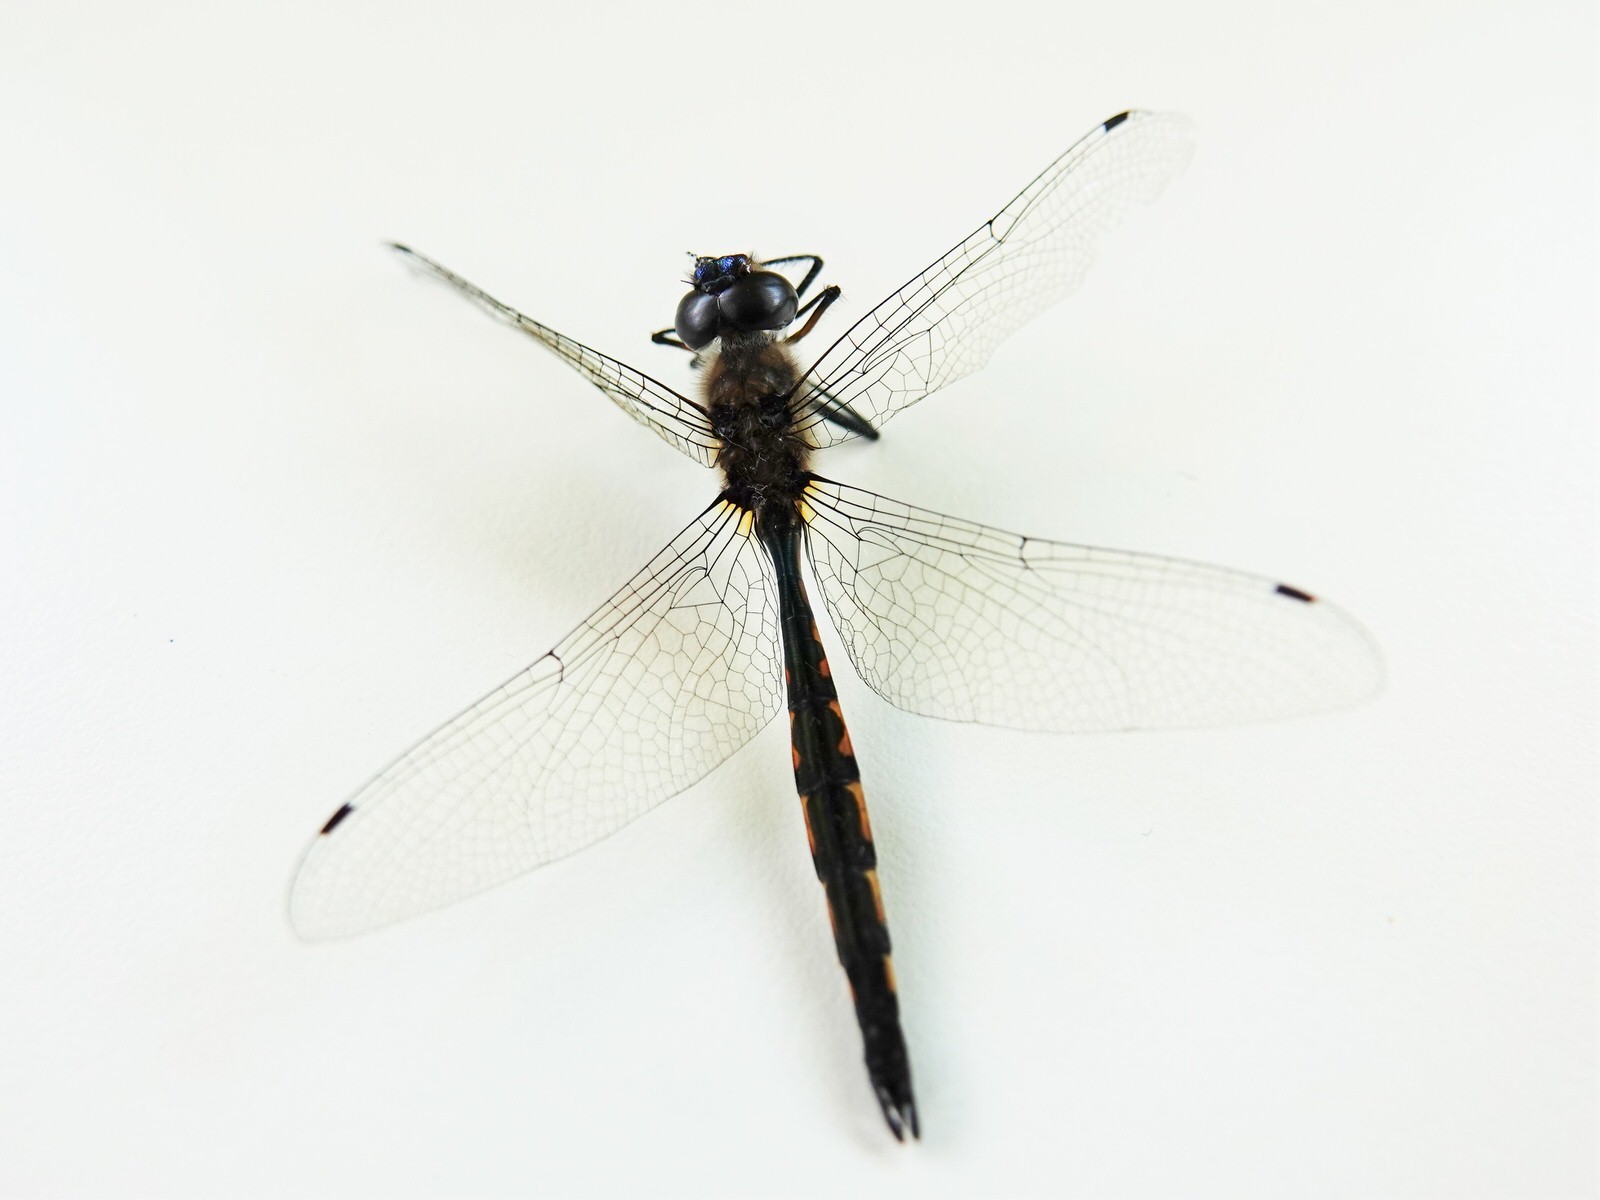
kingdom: Animalia
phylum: Arthropoda
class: Insecta
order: Odonata
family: Corduliidae
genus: Hemicordulia
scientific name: Hemicordulia armstrongi
